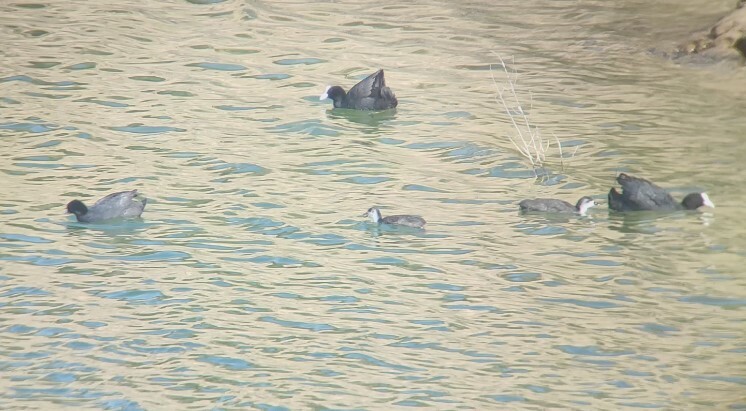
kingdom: Animalia
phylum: Chordata
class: Aves
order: Gruiformes
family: Rallidae
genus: Fulica
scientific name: Fulica atra
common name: Eurasian coot
